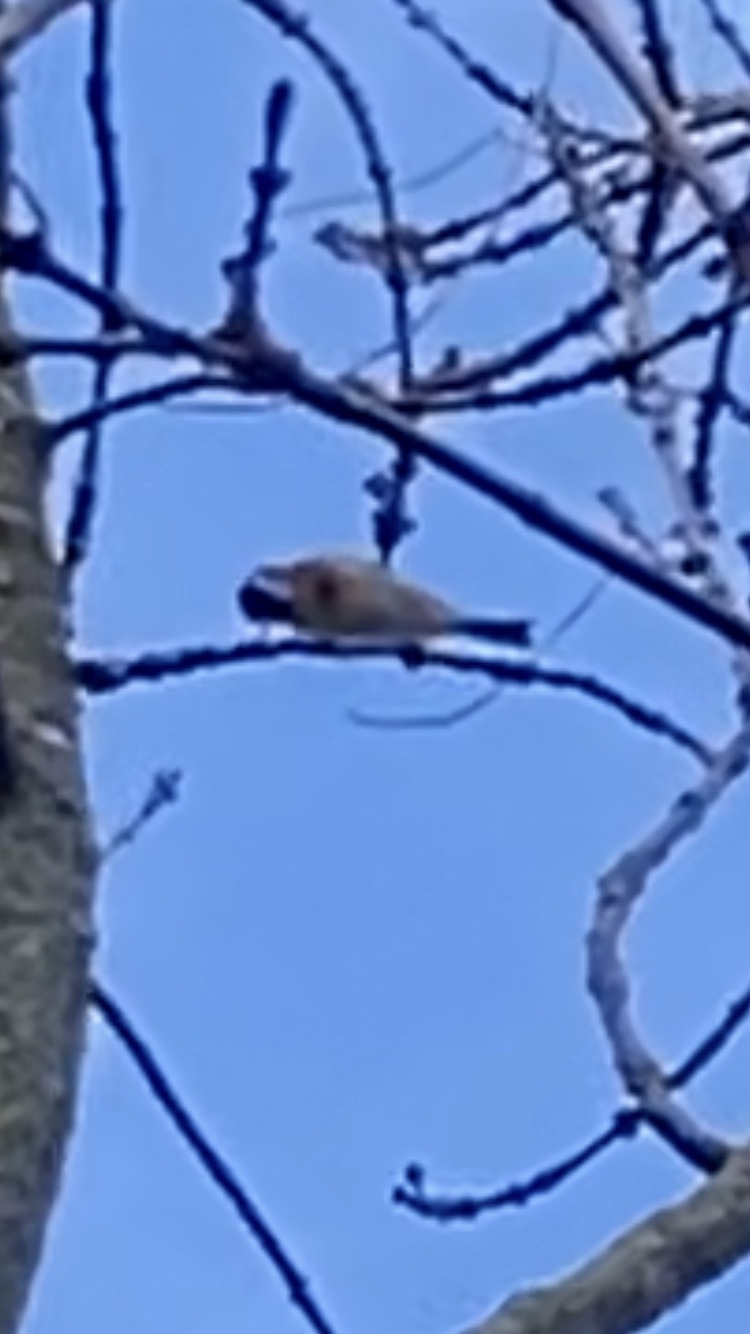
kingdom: Animalia
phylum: Chordata
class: Aves
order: Passeriformes
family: Fringillidae
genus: Carduelis
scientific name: Carduelis carduelis
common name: European goldfinch
